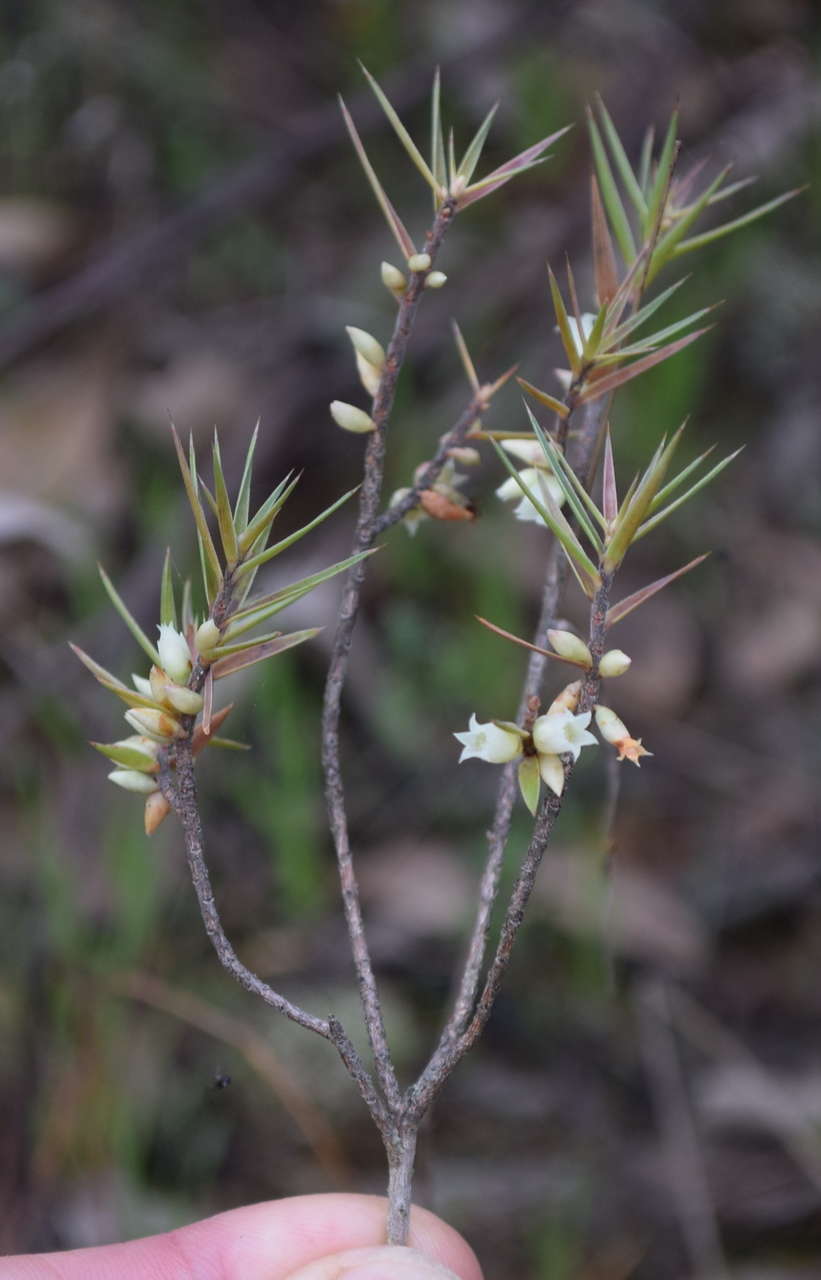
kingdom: Plantae
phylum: Tracheophyta
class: Magnoliopsida
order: Ericales
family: Ericaceae
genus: Melichrus
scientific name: Melichrus urceolatus
